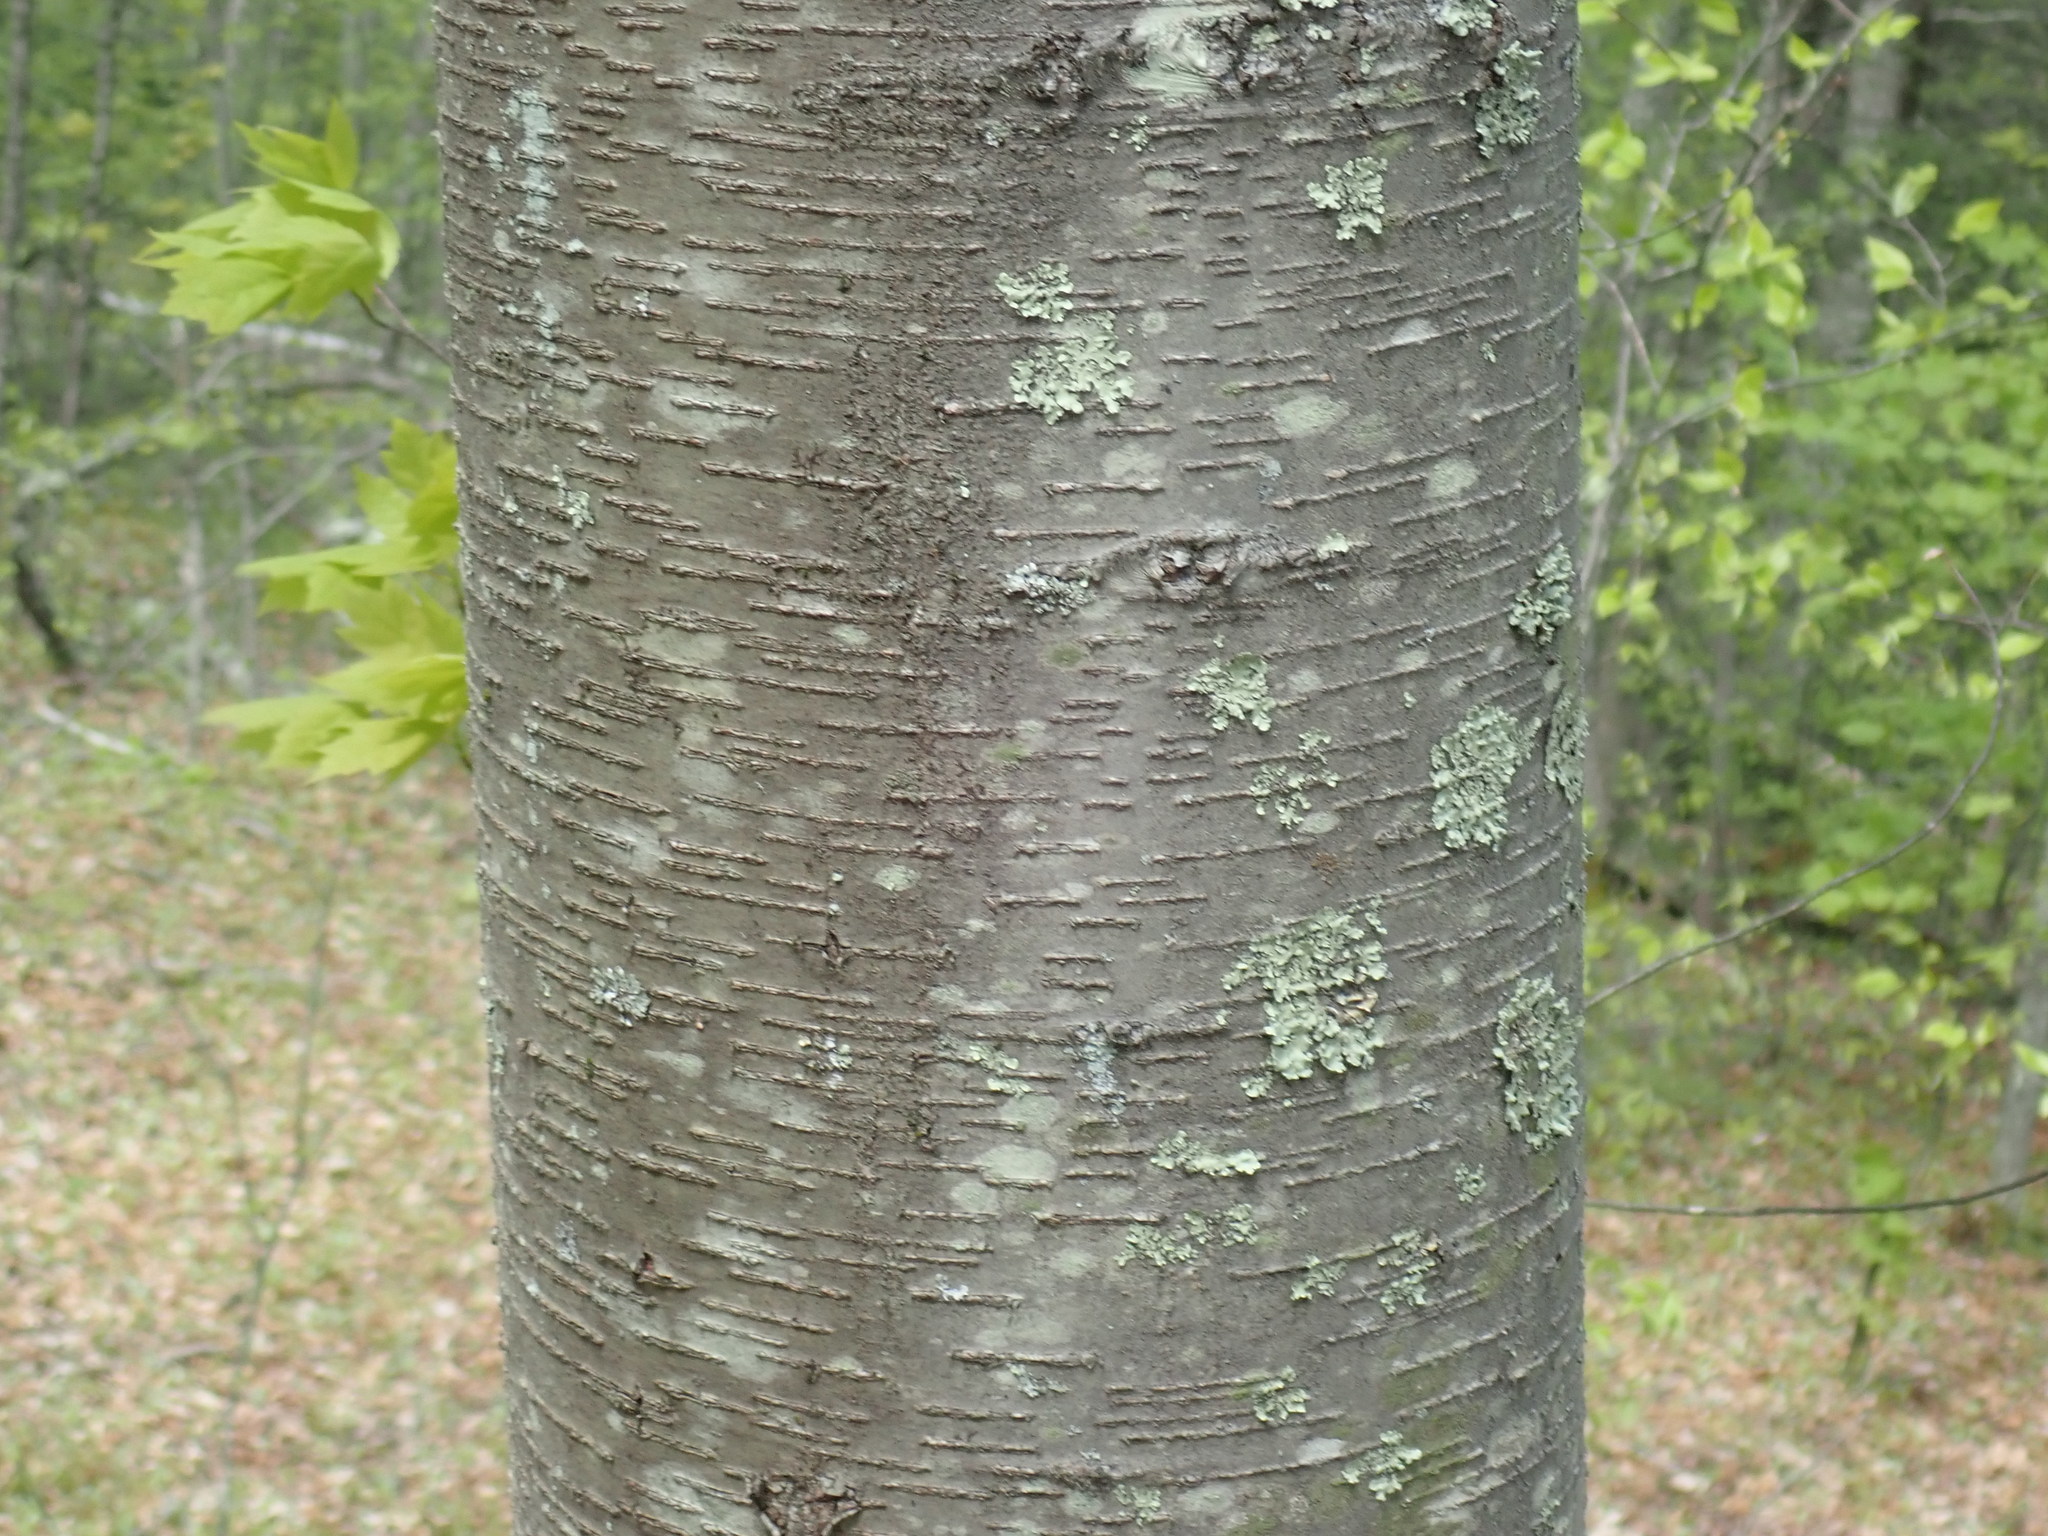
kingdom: Plantae
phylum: Tracheophyta
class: Magnoliopsida
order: Fagales
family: Betulaceae
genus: Betula
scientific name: Betula lenta
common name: Black birch
